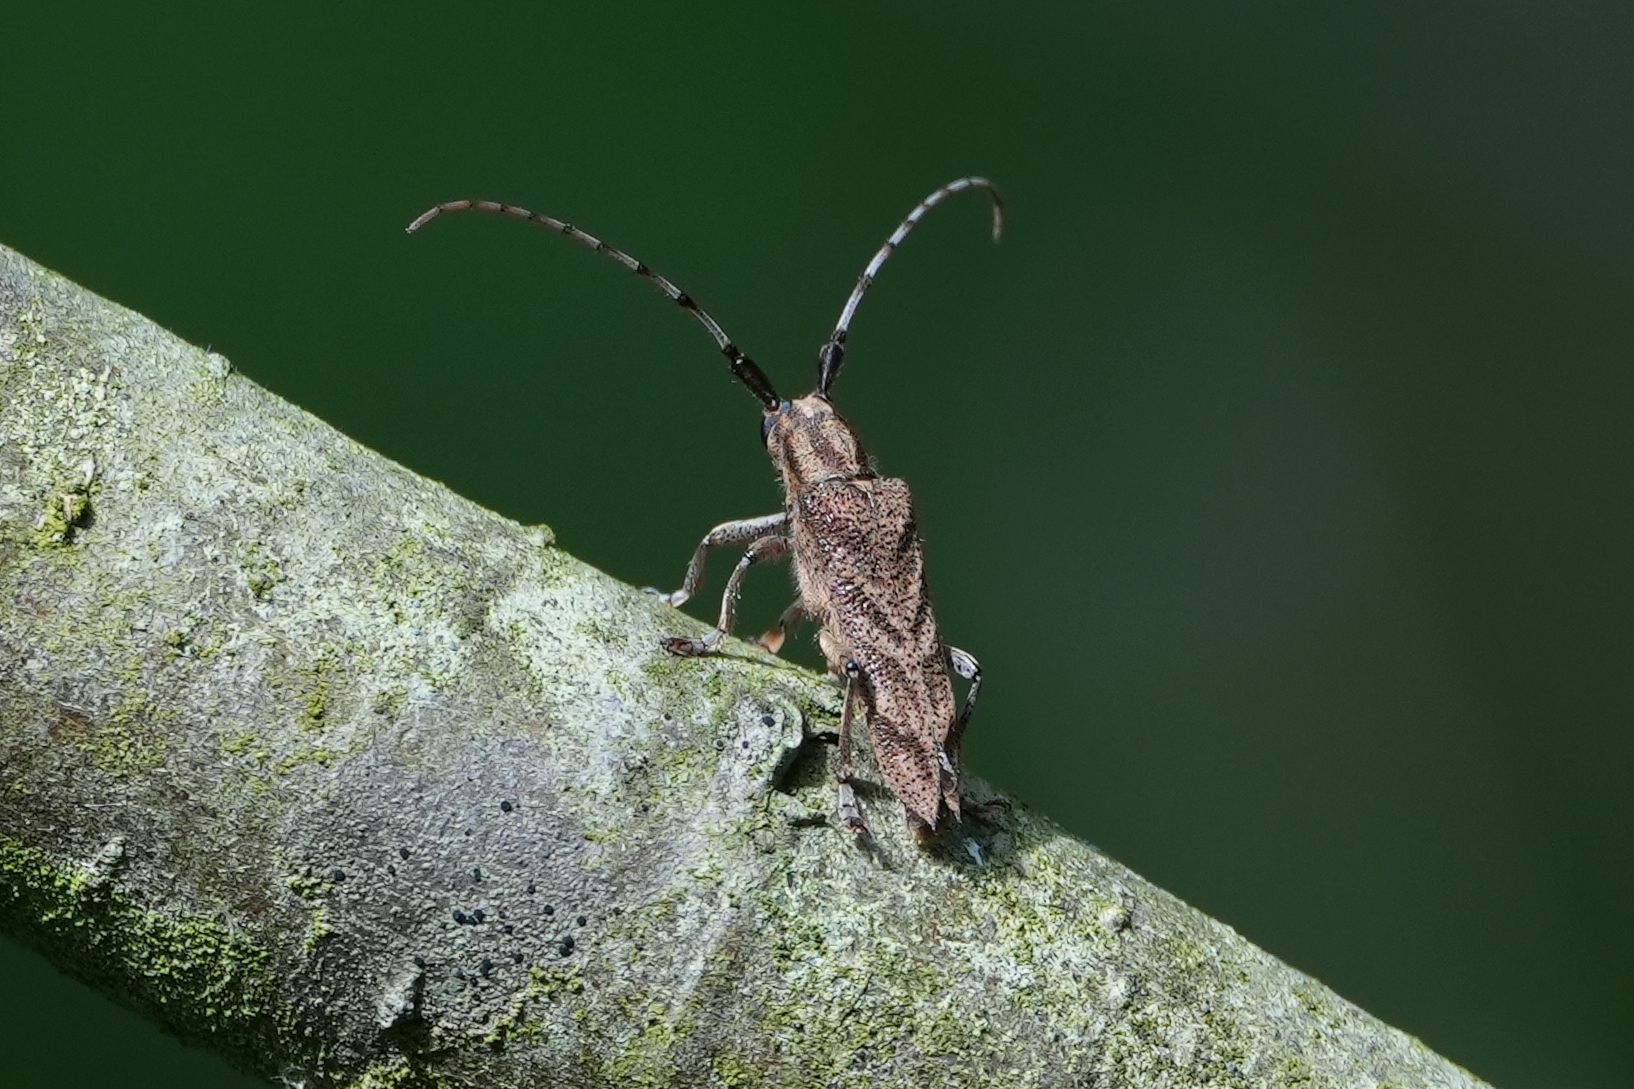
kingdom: Animalia
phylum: Arthropoda
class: Insecta
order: Coleoptera
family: Cerambycidae
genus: Saperda
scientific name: Saperda obliqua
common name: Alder borer
